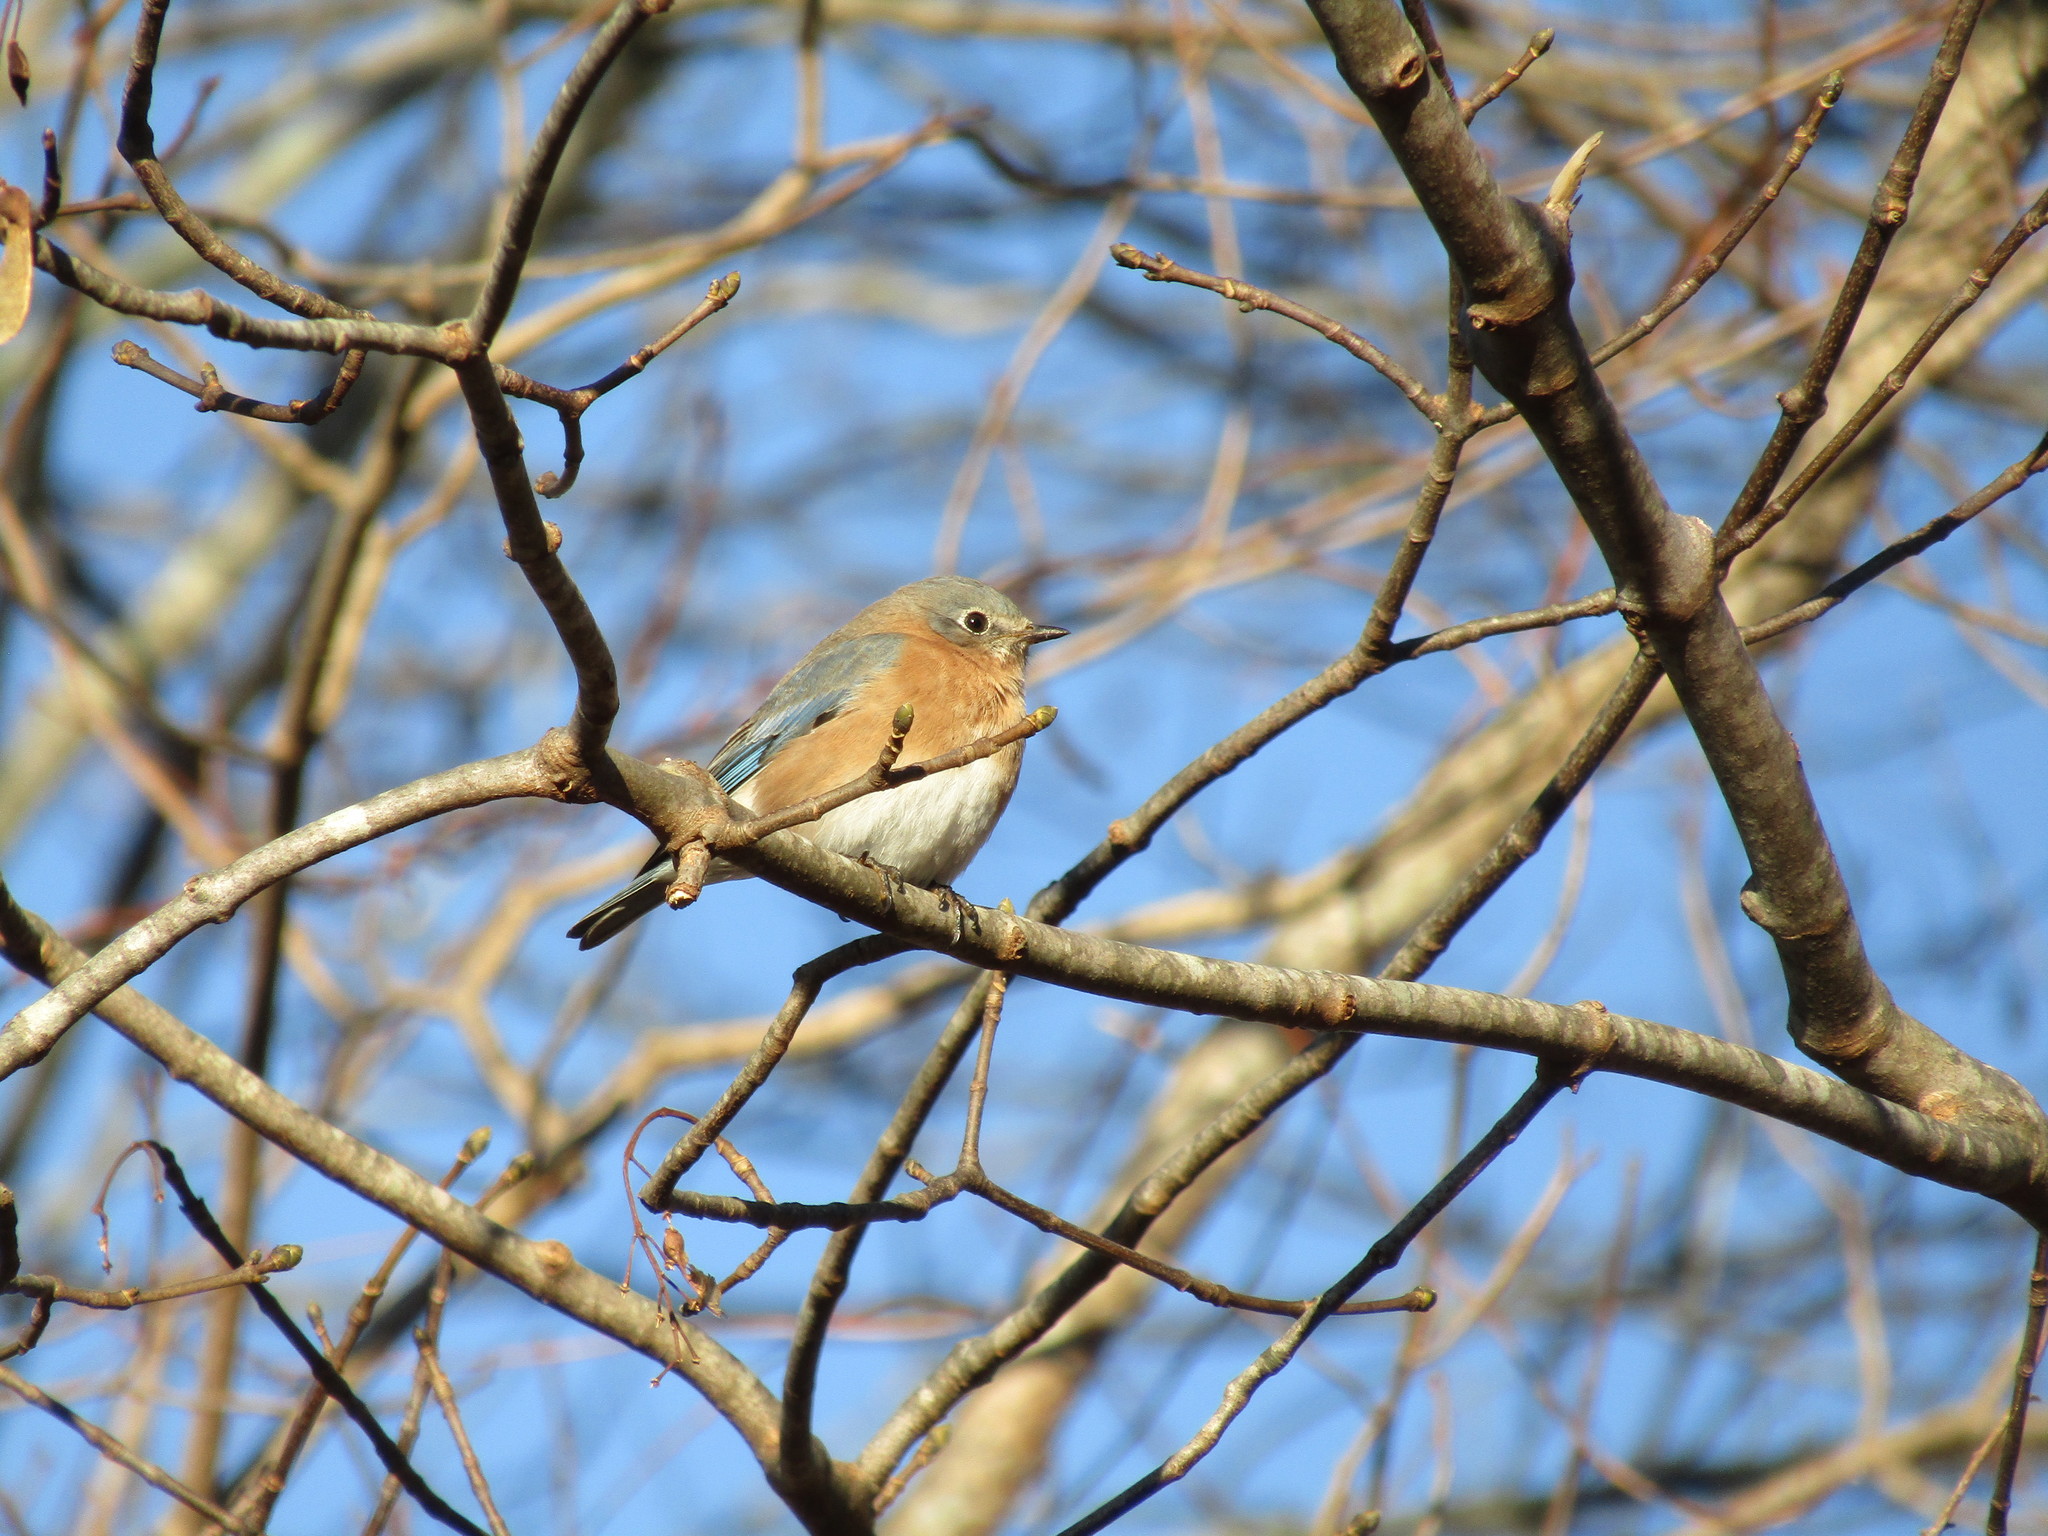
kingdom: Animalia
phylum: Chordata
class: Aves
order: Passeriformes
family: Turdidae
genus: Sialia
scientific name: Sialia sialis
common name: Eastern bluebird
